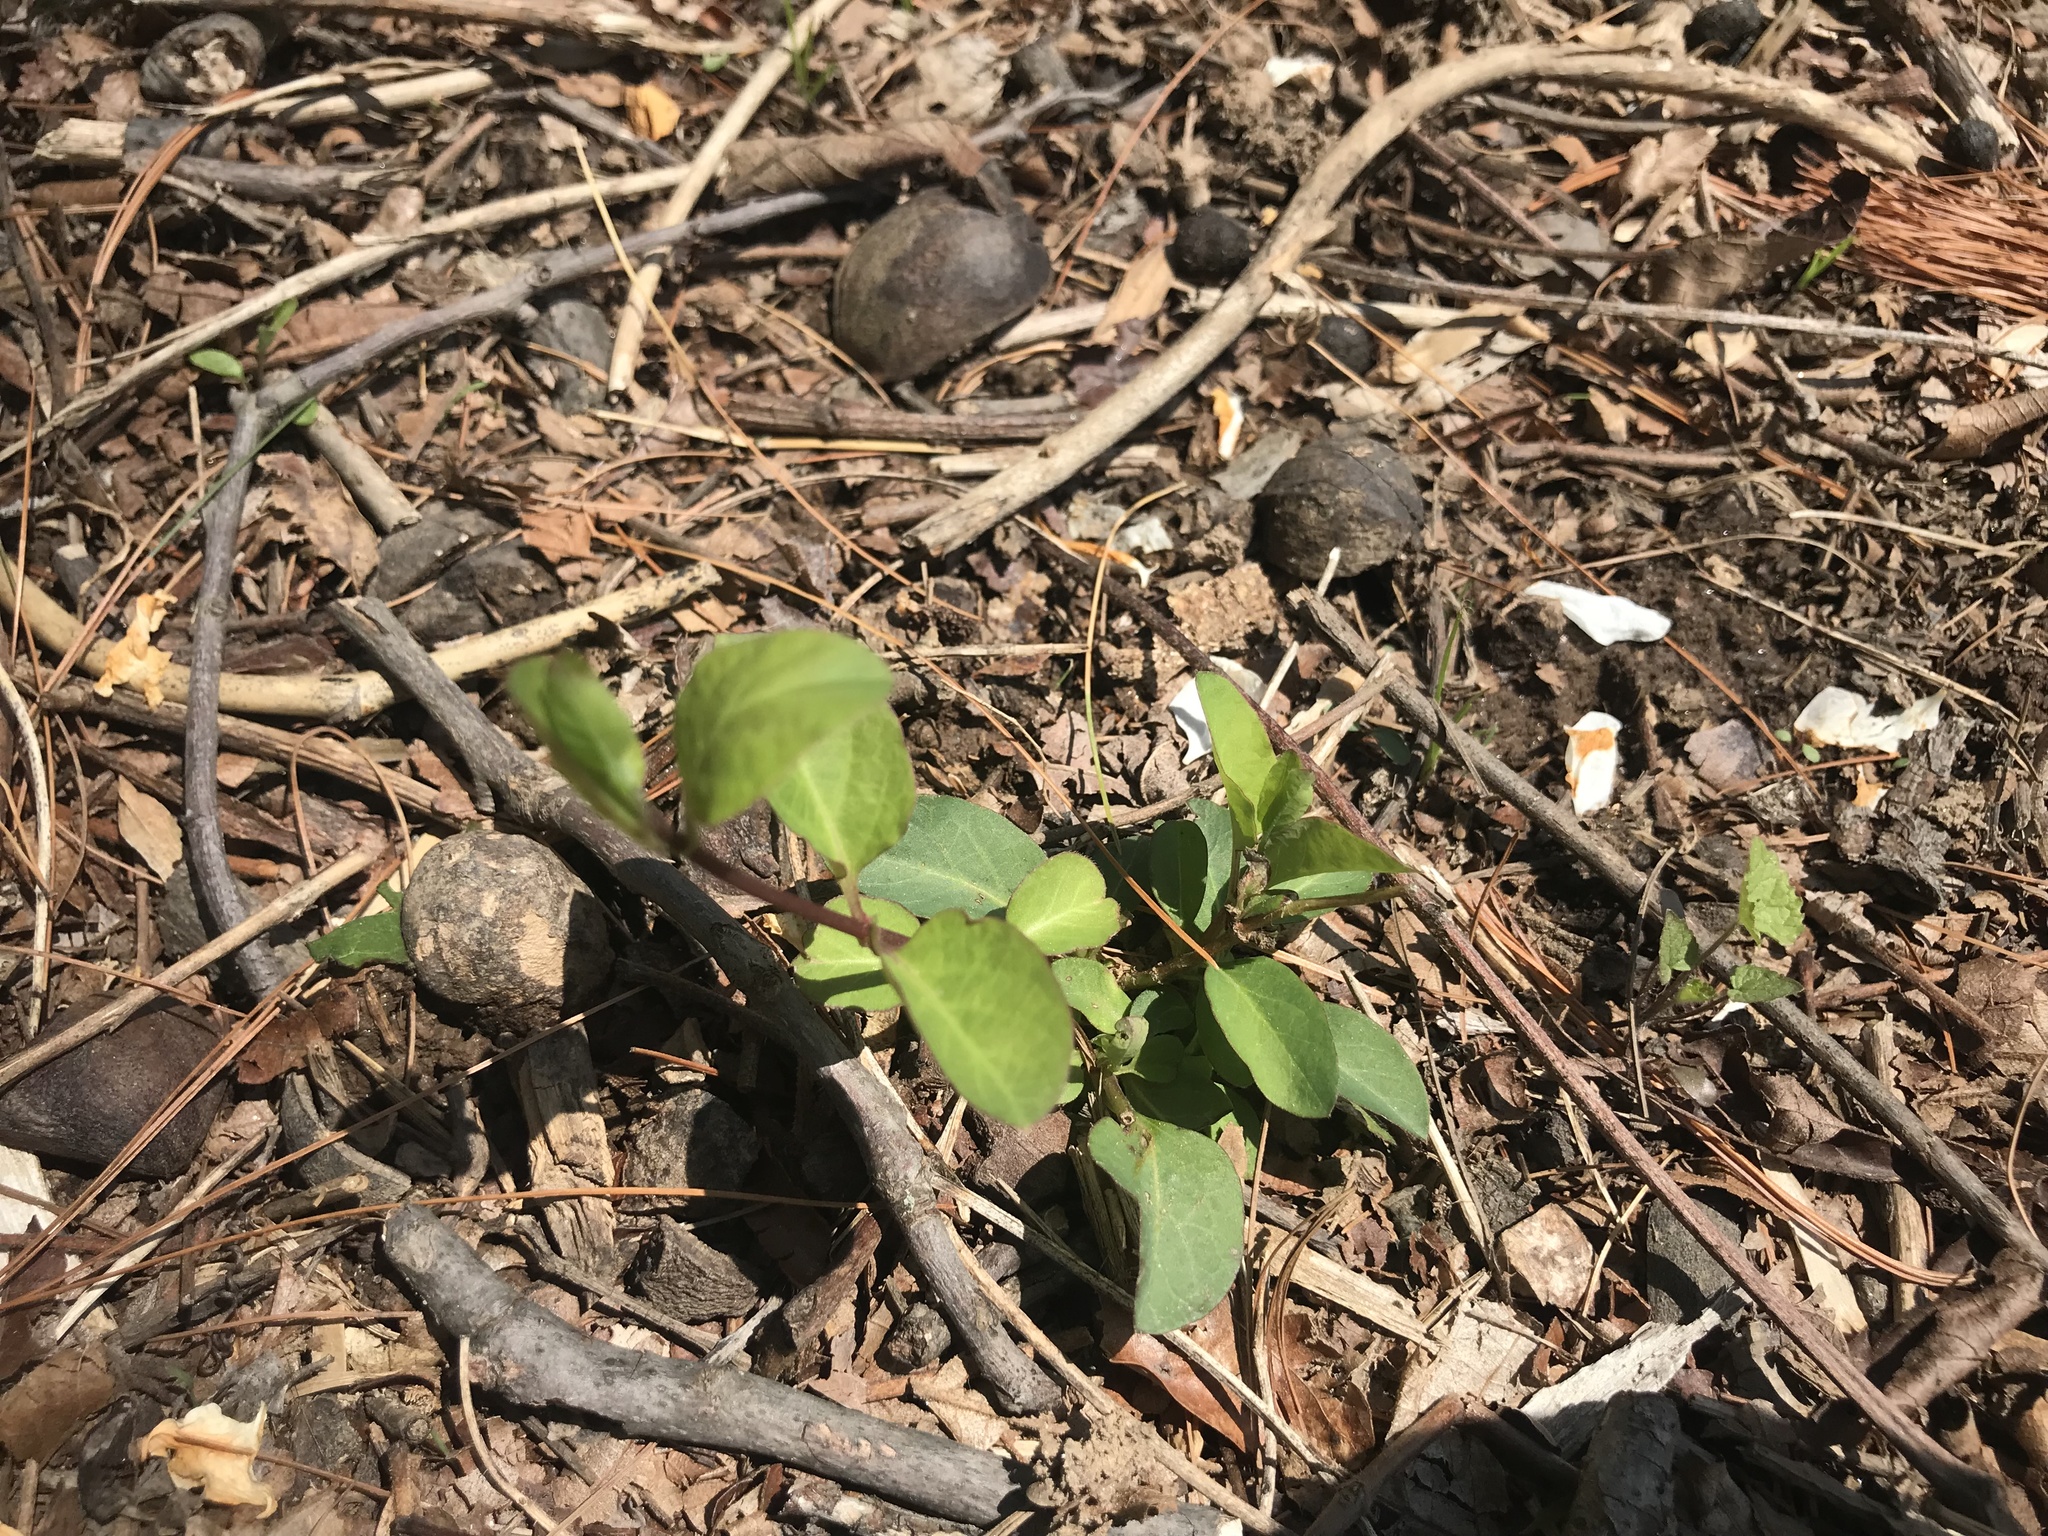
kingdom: Plantae
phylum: Tracheophyta
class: Magnoliopsida
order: Dipsacales
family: Caprifoliaceae
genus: Lonicera
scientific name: Lonicera japonica
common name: Japanese honeysuckle
